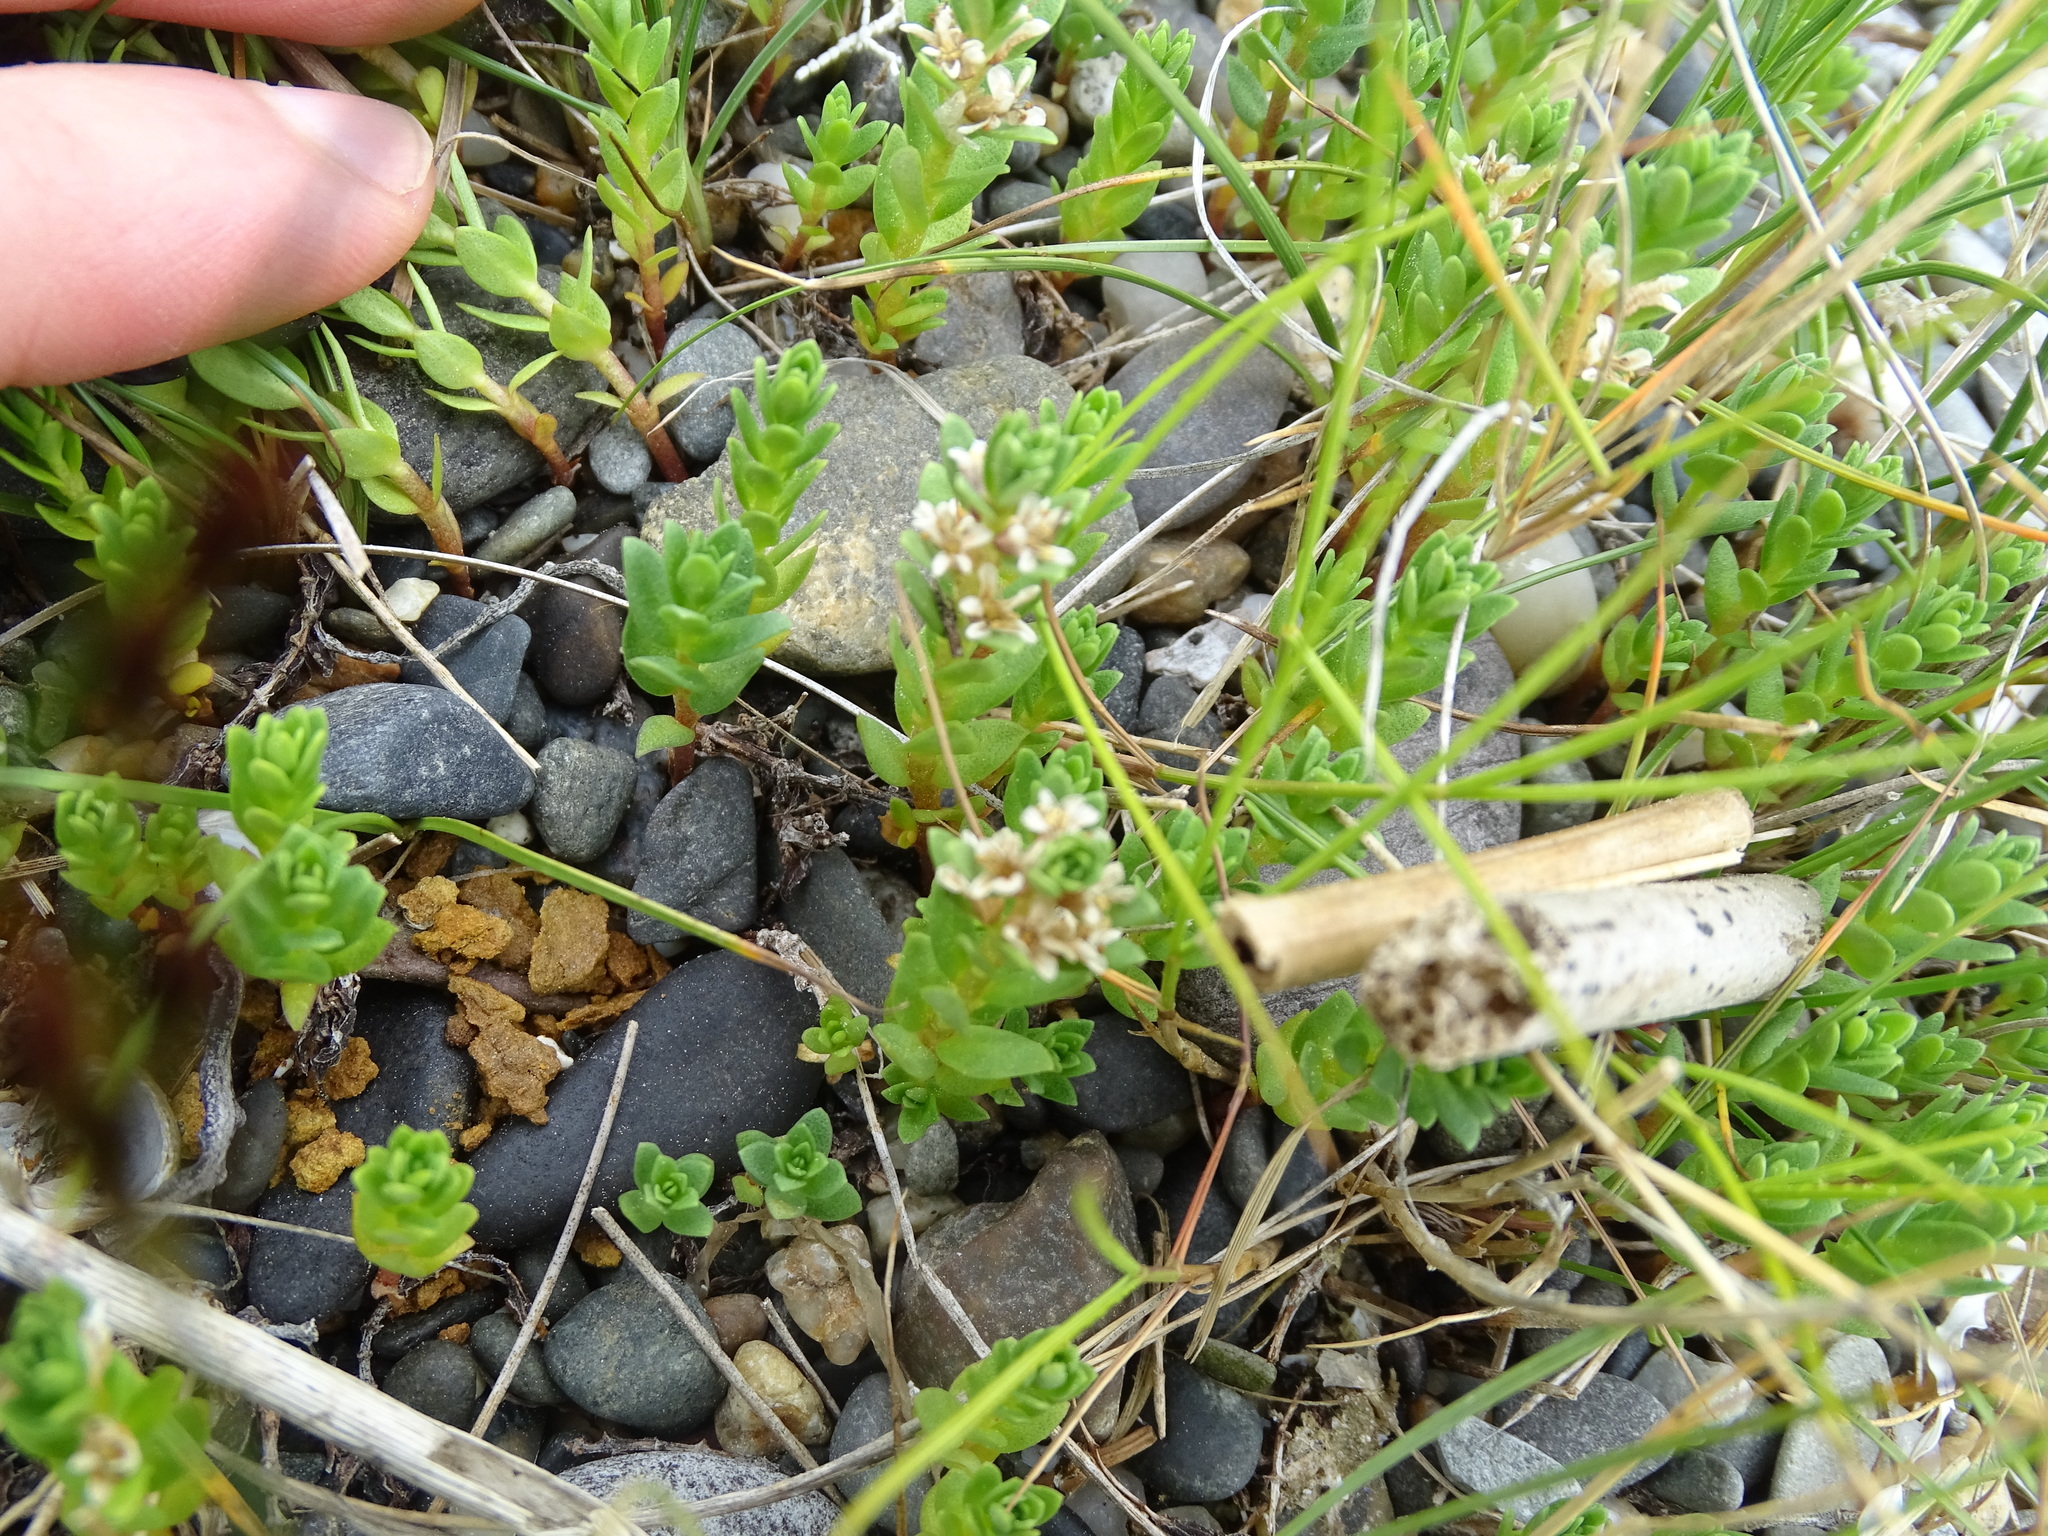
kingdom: Plantae
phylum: Tracheophyta
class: Magnoliopsida
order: Ericales
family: Primulaceae
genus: Lysimachia
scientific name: Lysimachia maritima
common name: Sea milkwort
